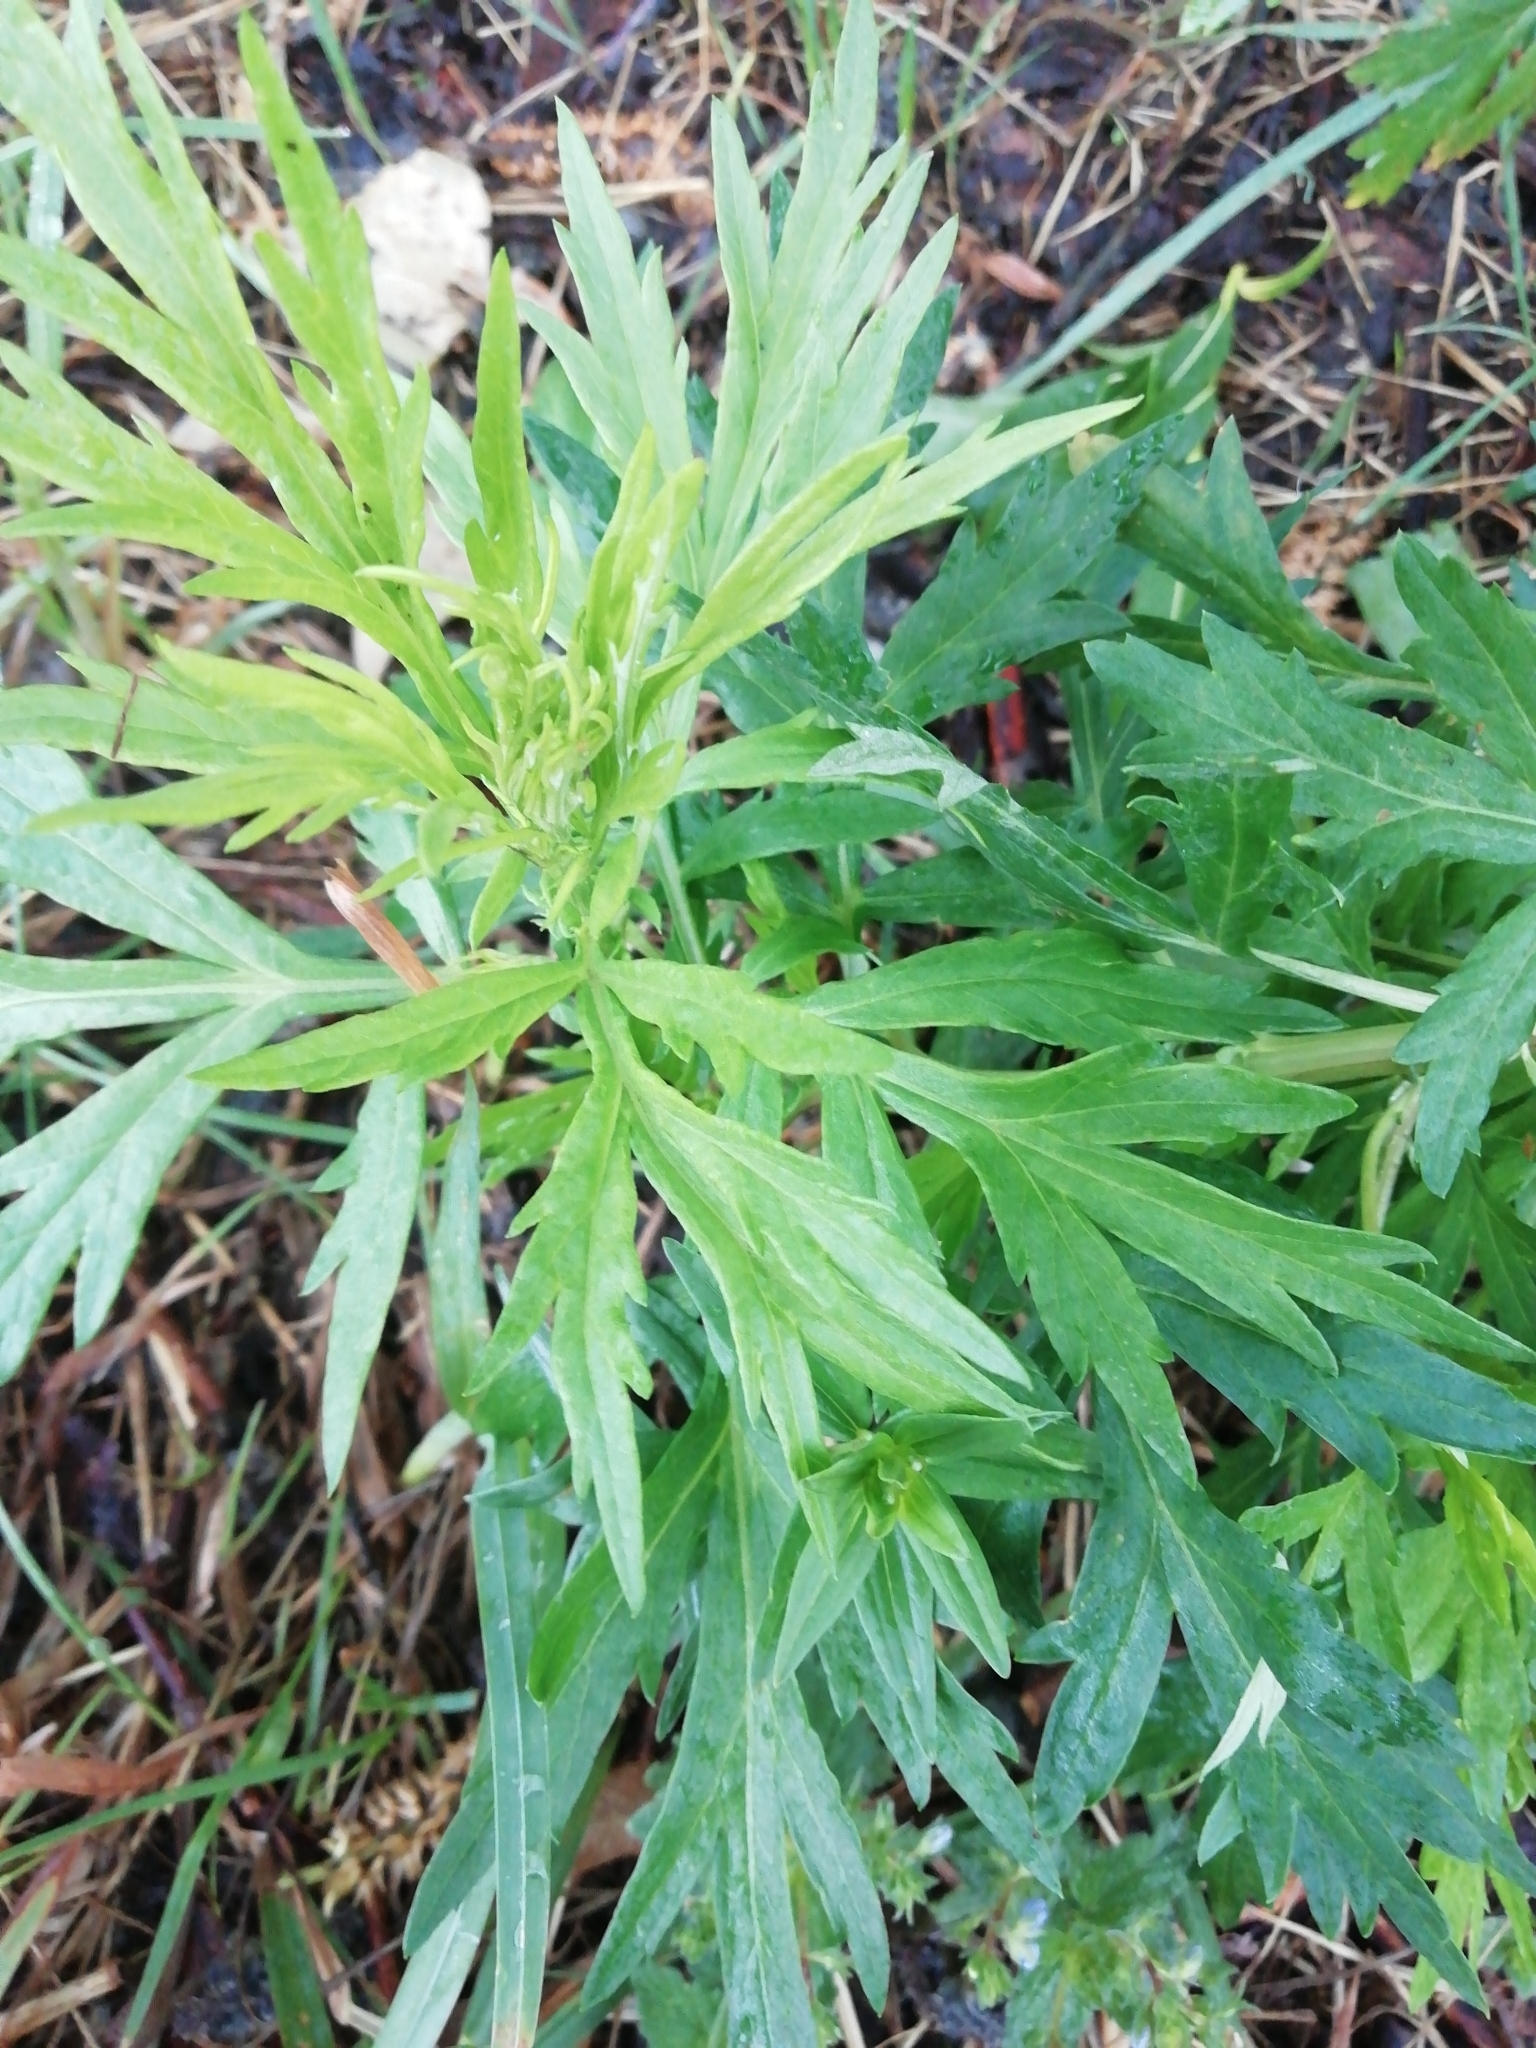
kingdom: Plantae
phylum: Tracheophyta
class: Magnoliopsida
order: Asterales
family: Asteraceae
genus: Artemisia
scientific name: Artemisia vulgaris
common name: Mugwort
